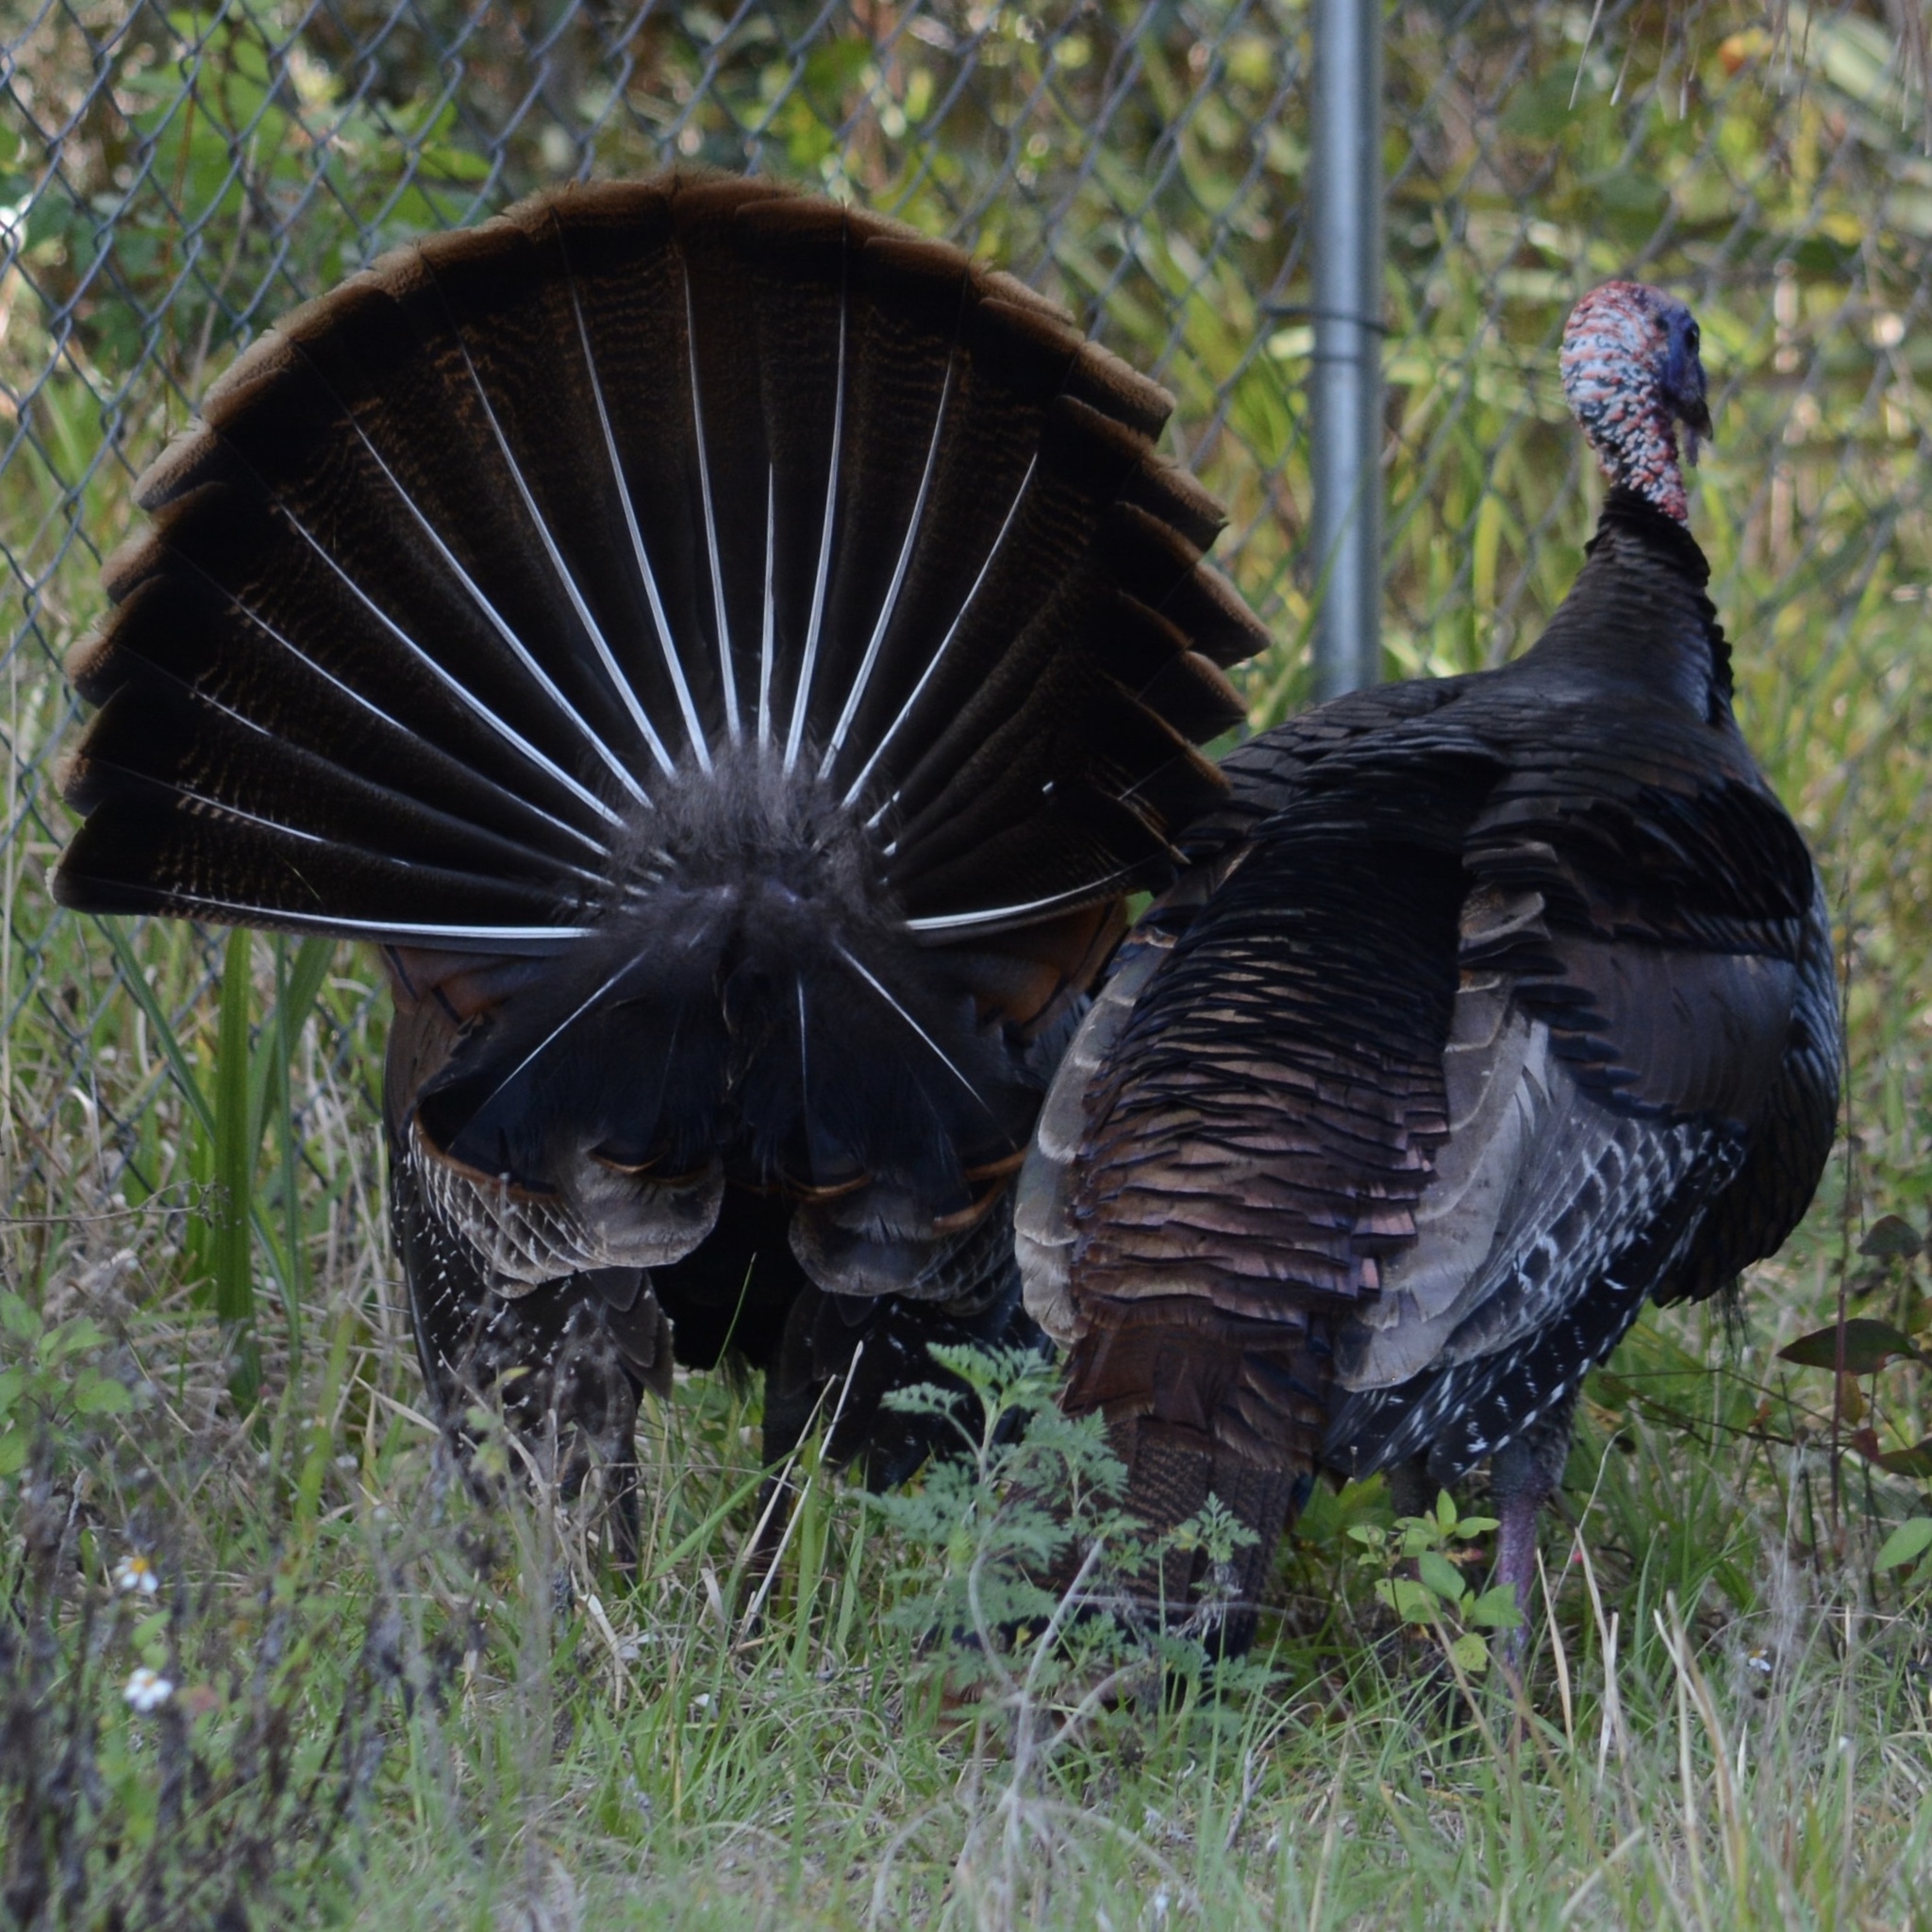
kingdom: Animalia
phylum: Chordata
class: Aves
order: Galliformes
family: Phasianidae
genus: Meleagris
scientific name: Meleagris gallopavo
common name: Wild turkey
